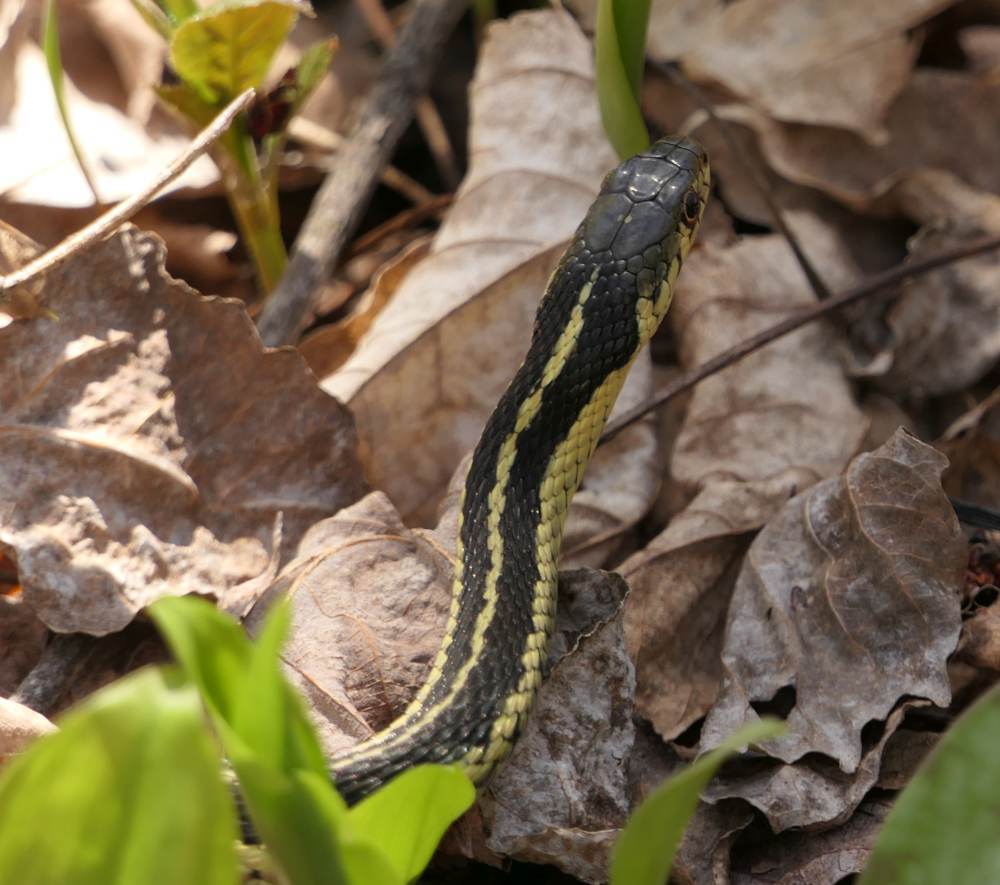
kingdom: Animalia
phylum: Chordata
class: Squamata
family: Colubridae
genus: Thamnophis
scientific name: Thamnophis sirtalis
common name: Common garter snake
